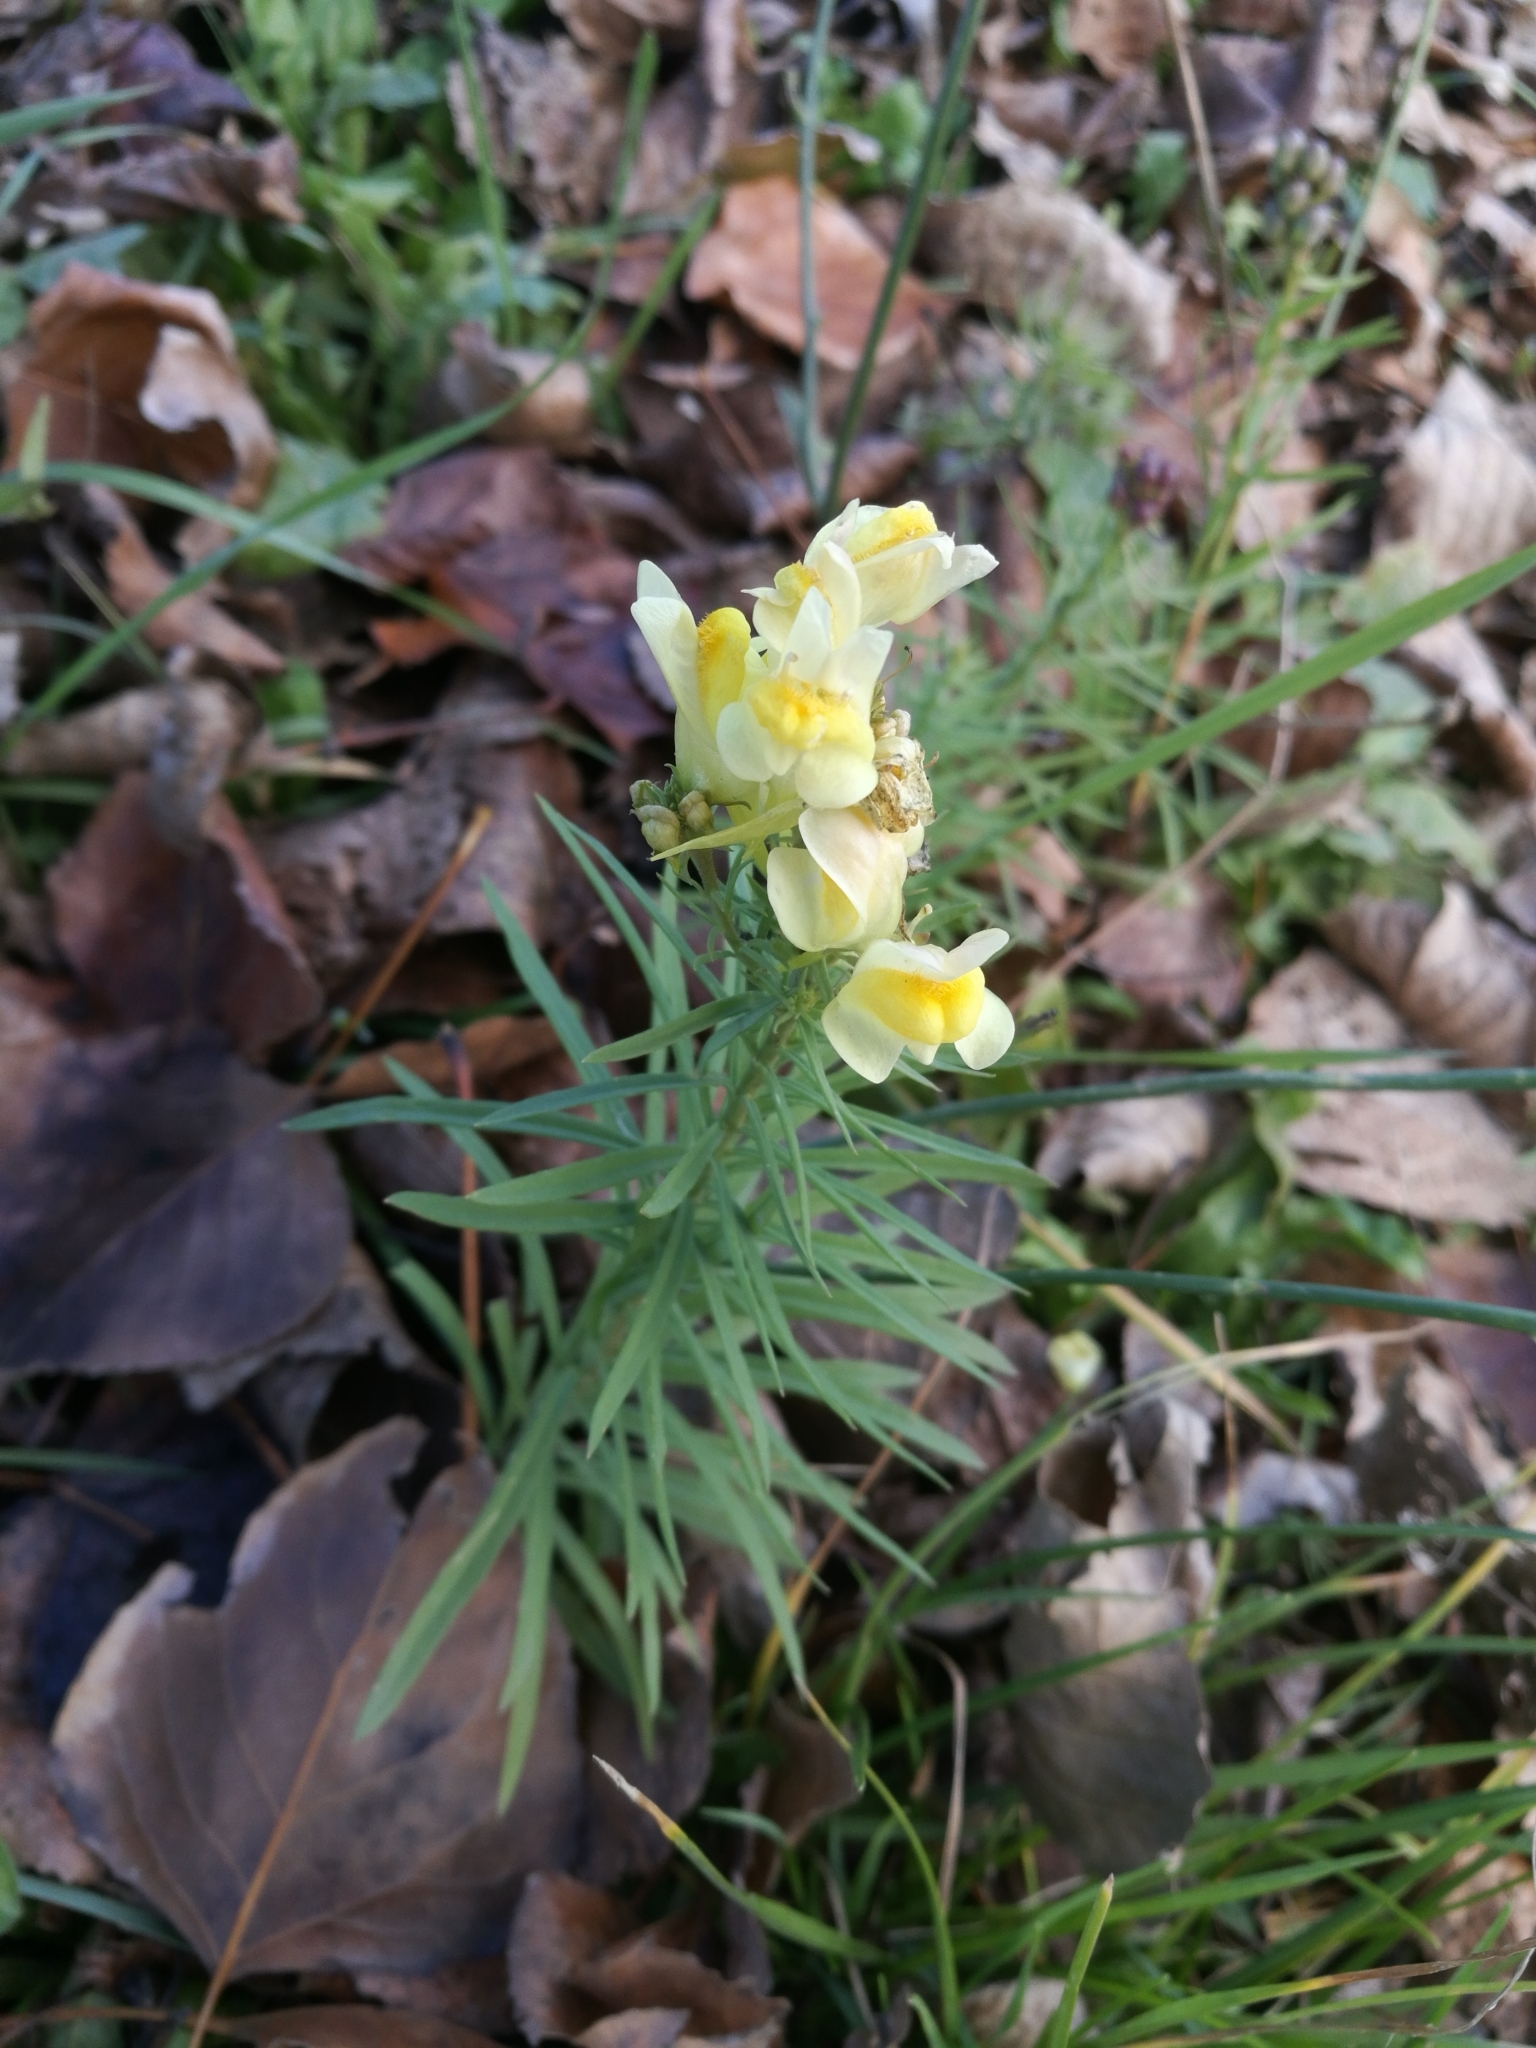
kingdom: Plantae
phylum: Tracheophyta
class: Magnoliopsida
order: Lamiales
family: Plantaginaceae
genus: Linaria
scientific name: Linaria vulgaris
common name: Butter and eggs
